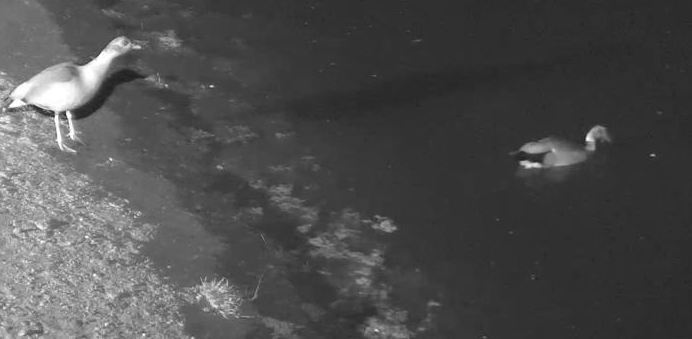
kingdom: Animalia
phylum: Chordata
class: Aves
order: Anseriformes
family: Anatidae
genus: Alopochen
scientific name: Alopochen aegyptiaca
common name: Egyptian goose
